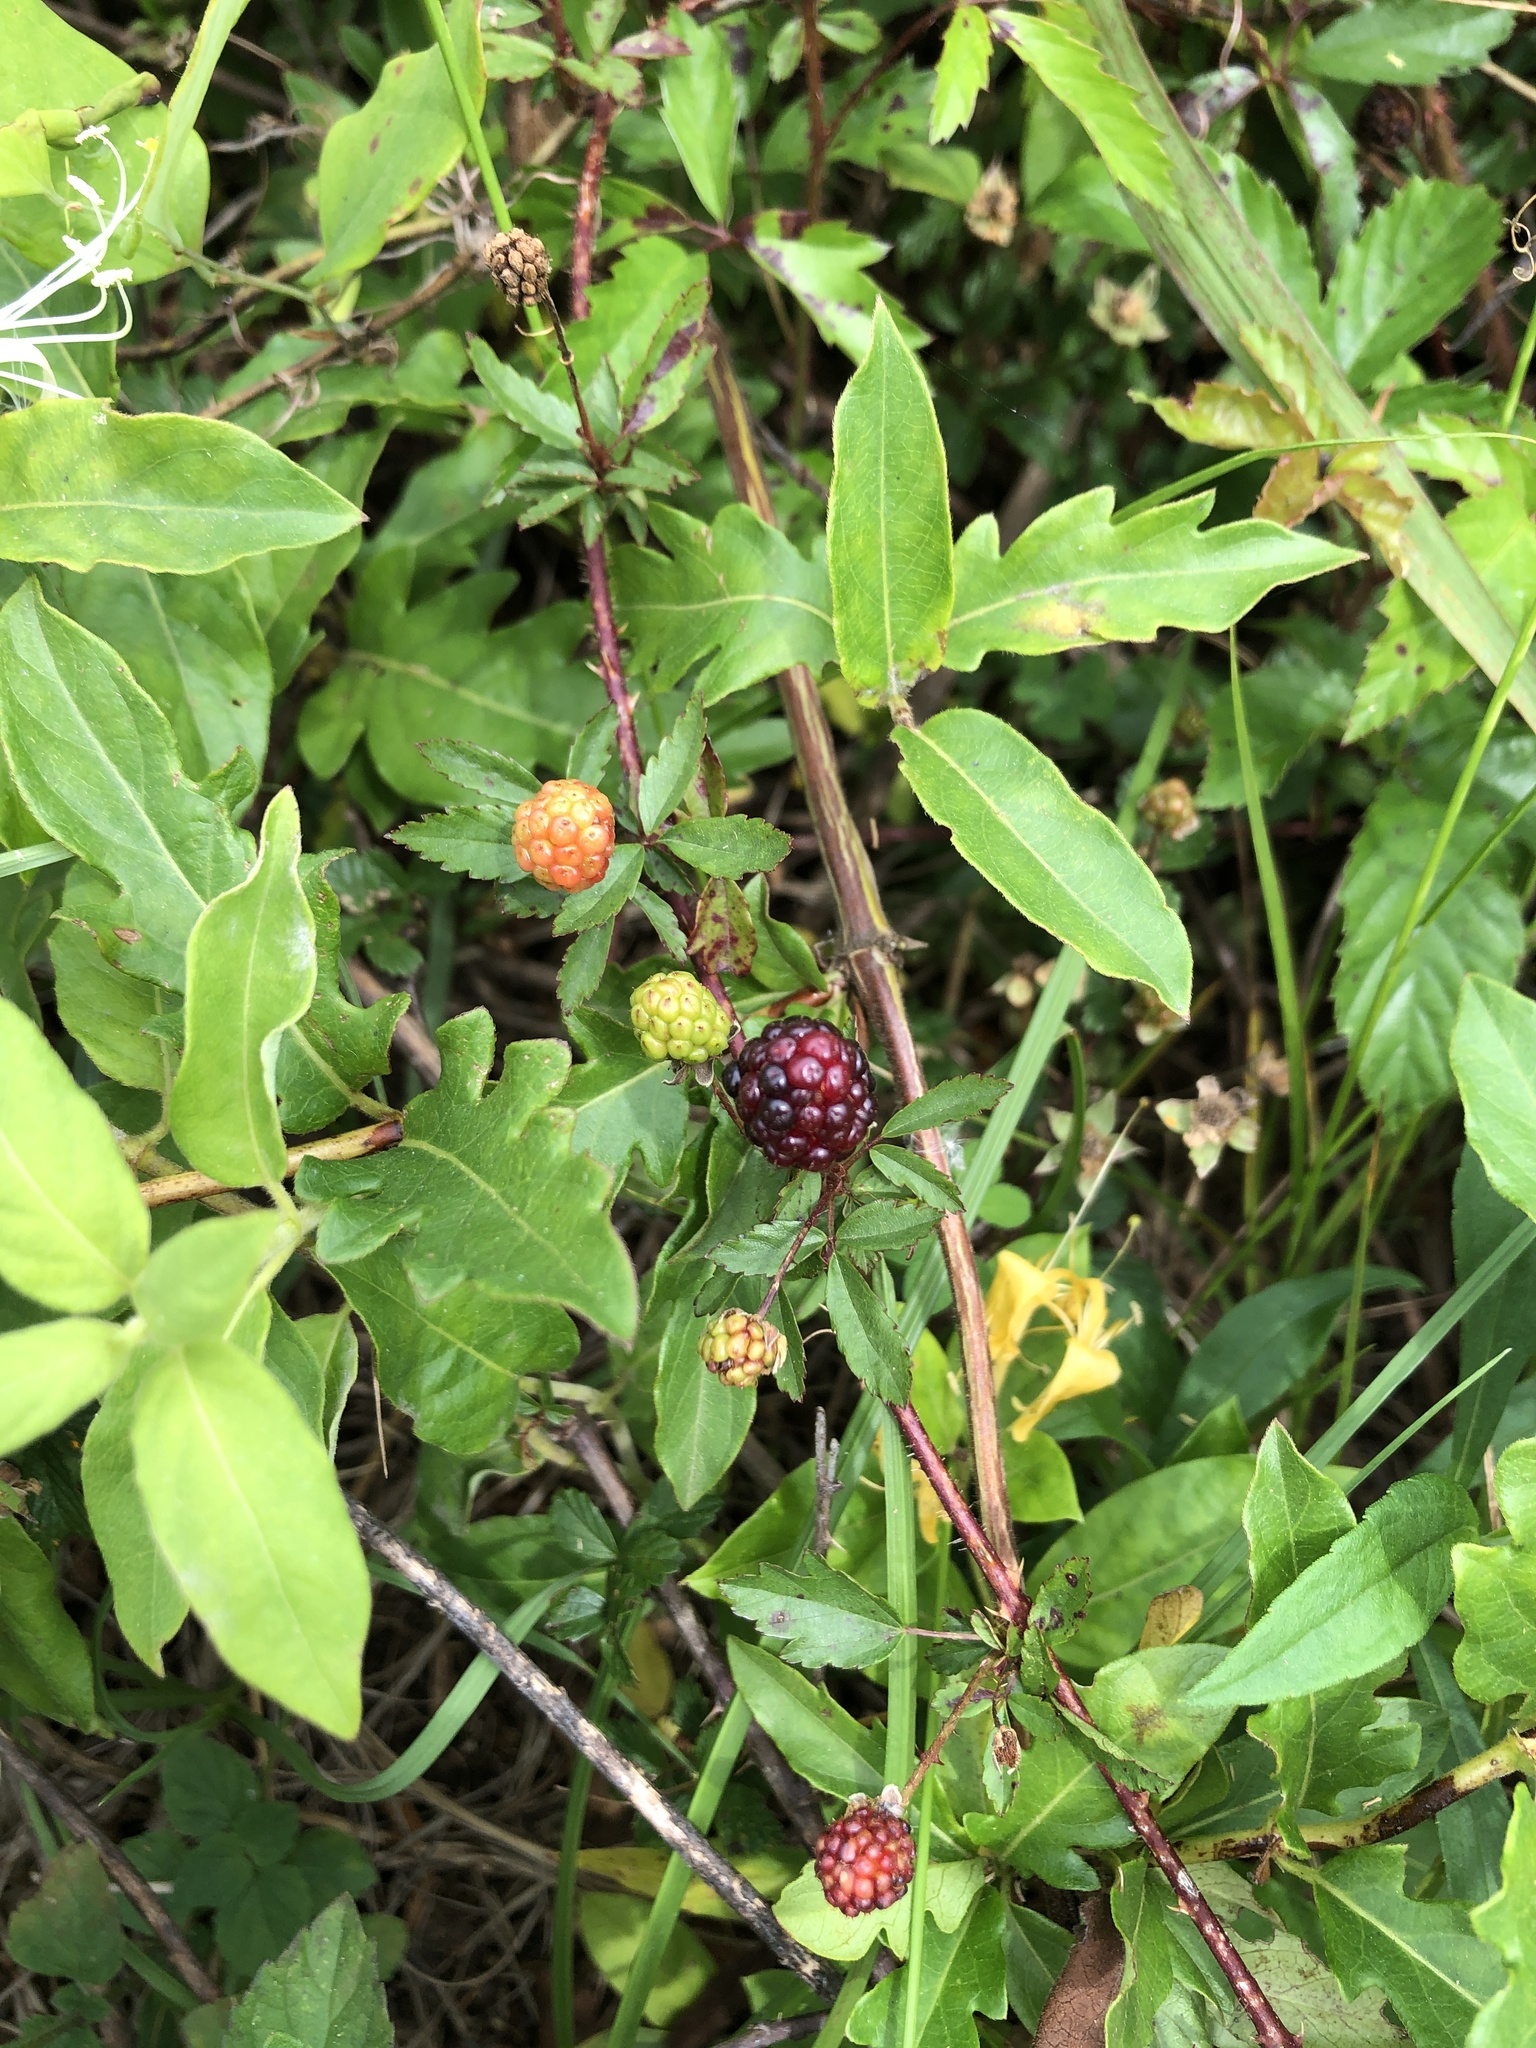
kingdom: Plantae
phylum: Tracheophyta
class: Magnoliopsida
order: Rosales
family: Rosaceae
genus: Rubus
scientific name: Rubus trivialis
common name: Southern dewberry
